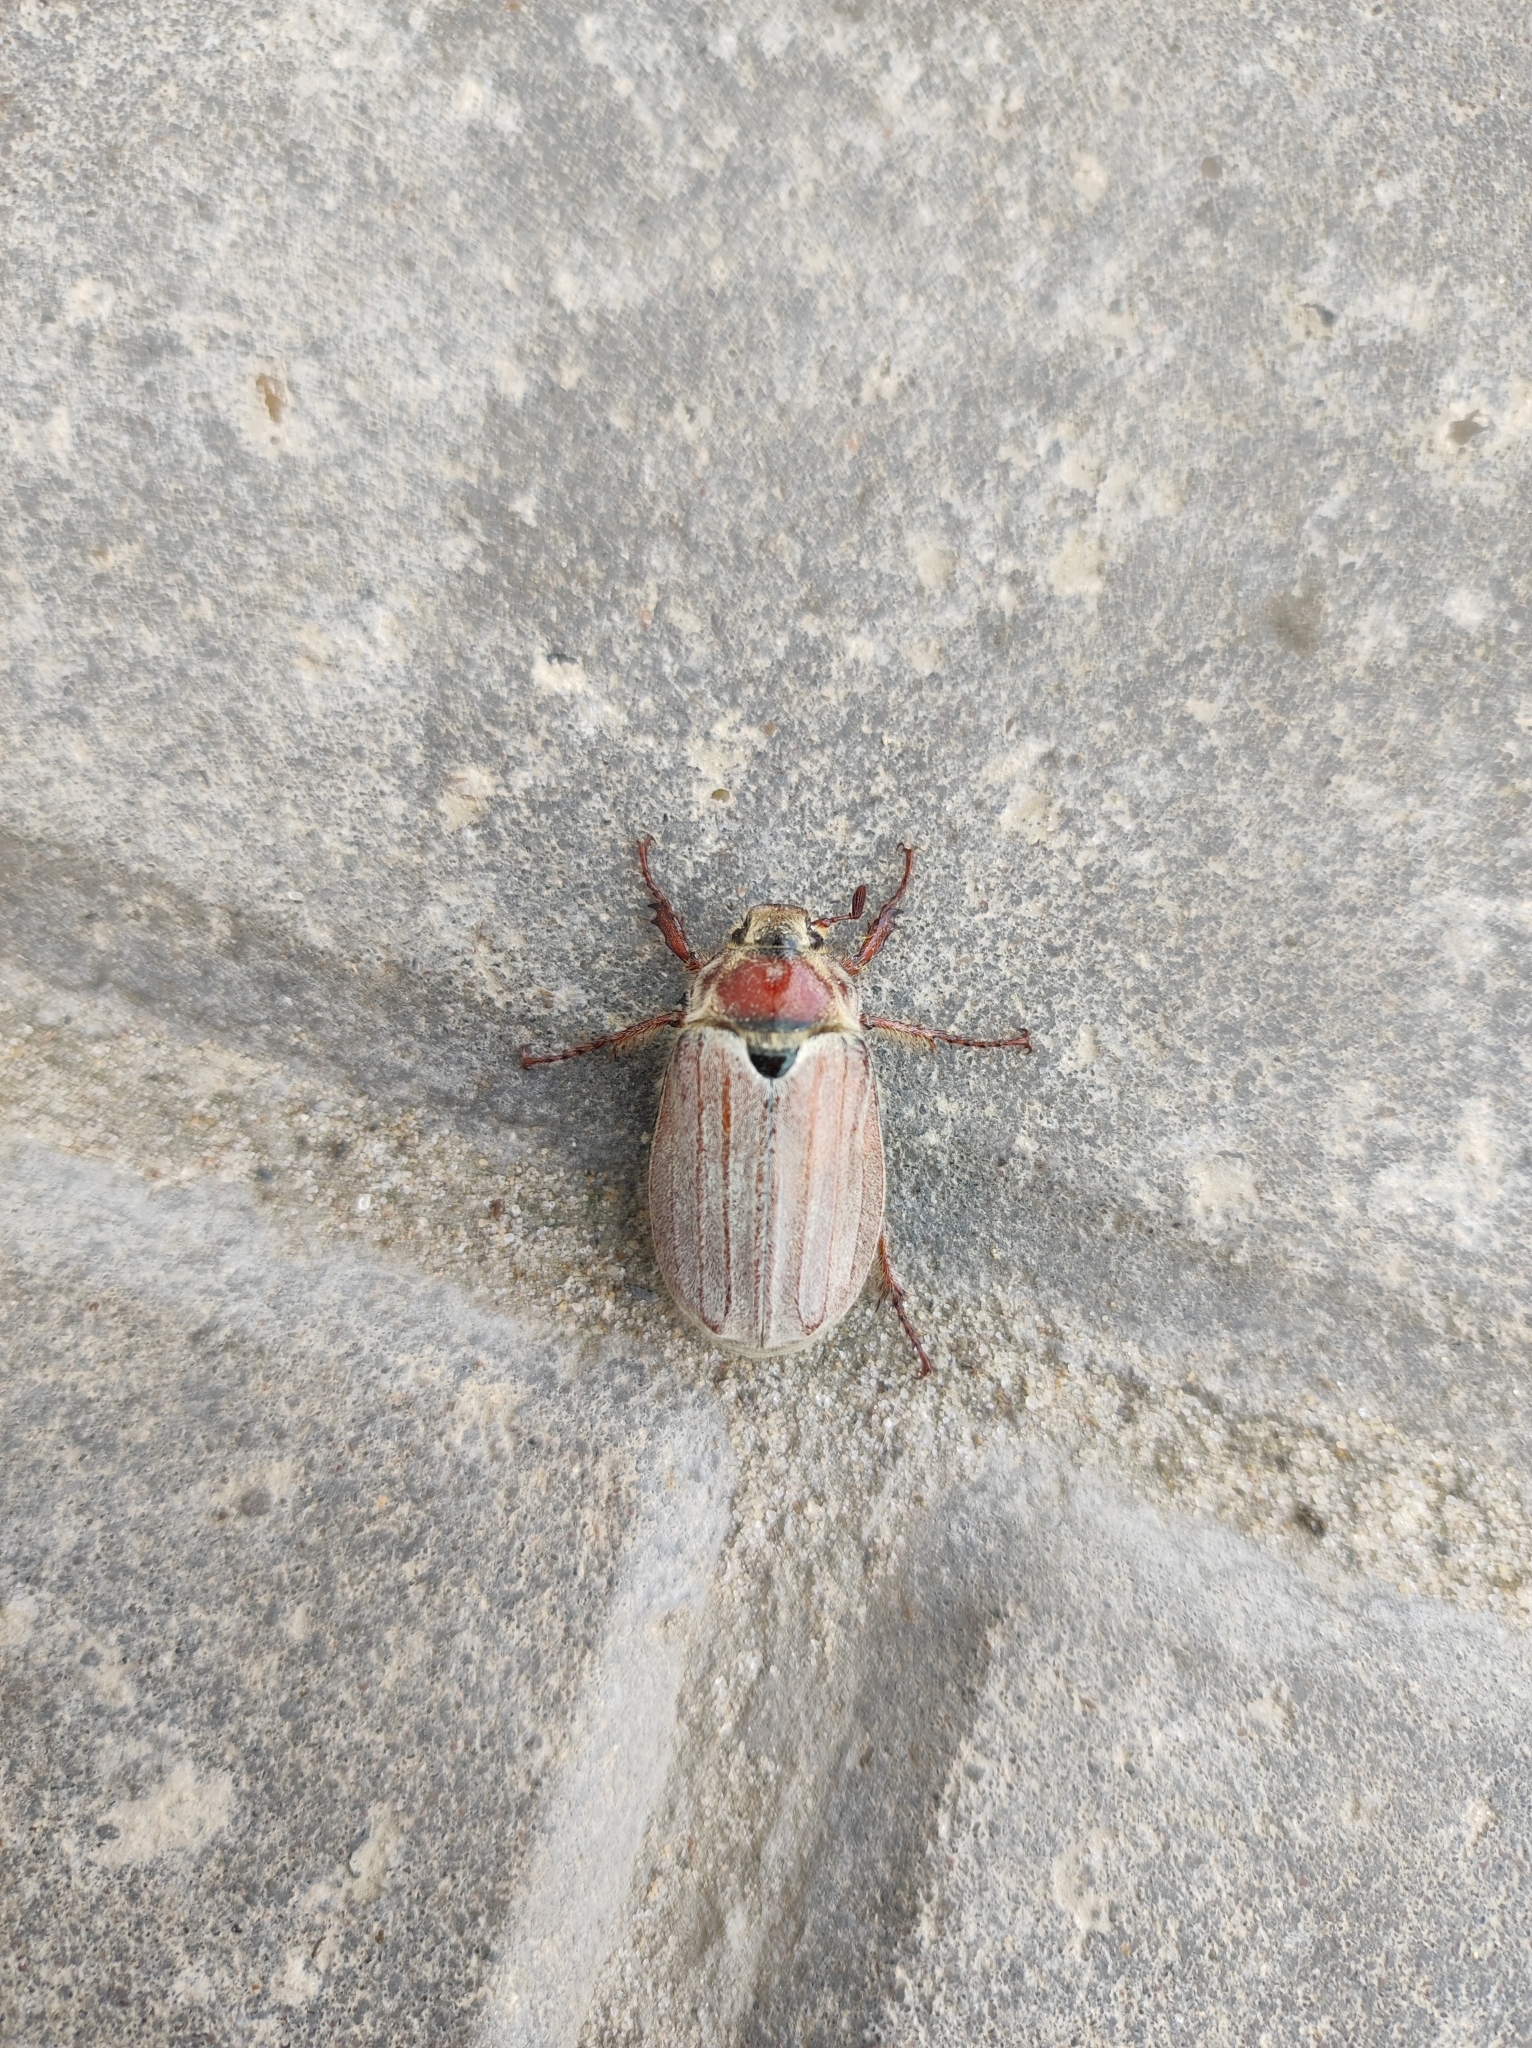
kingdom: Animalia
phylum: Arthropoda
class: Insecta
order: Coleoptera
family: Scarabaeidae
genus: Melolontha
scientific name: Melolontha hippocastani
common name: Chestnut cockchafer
